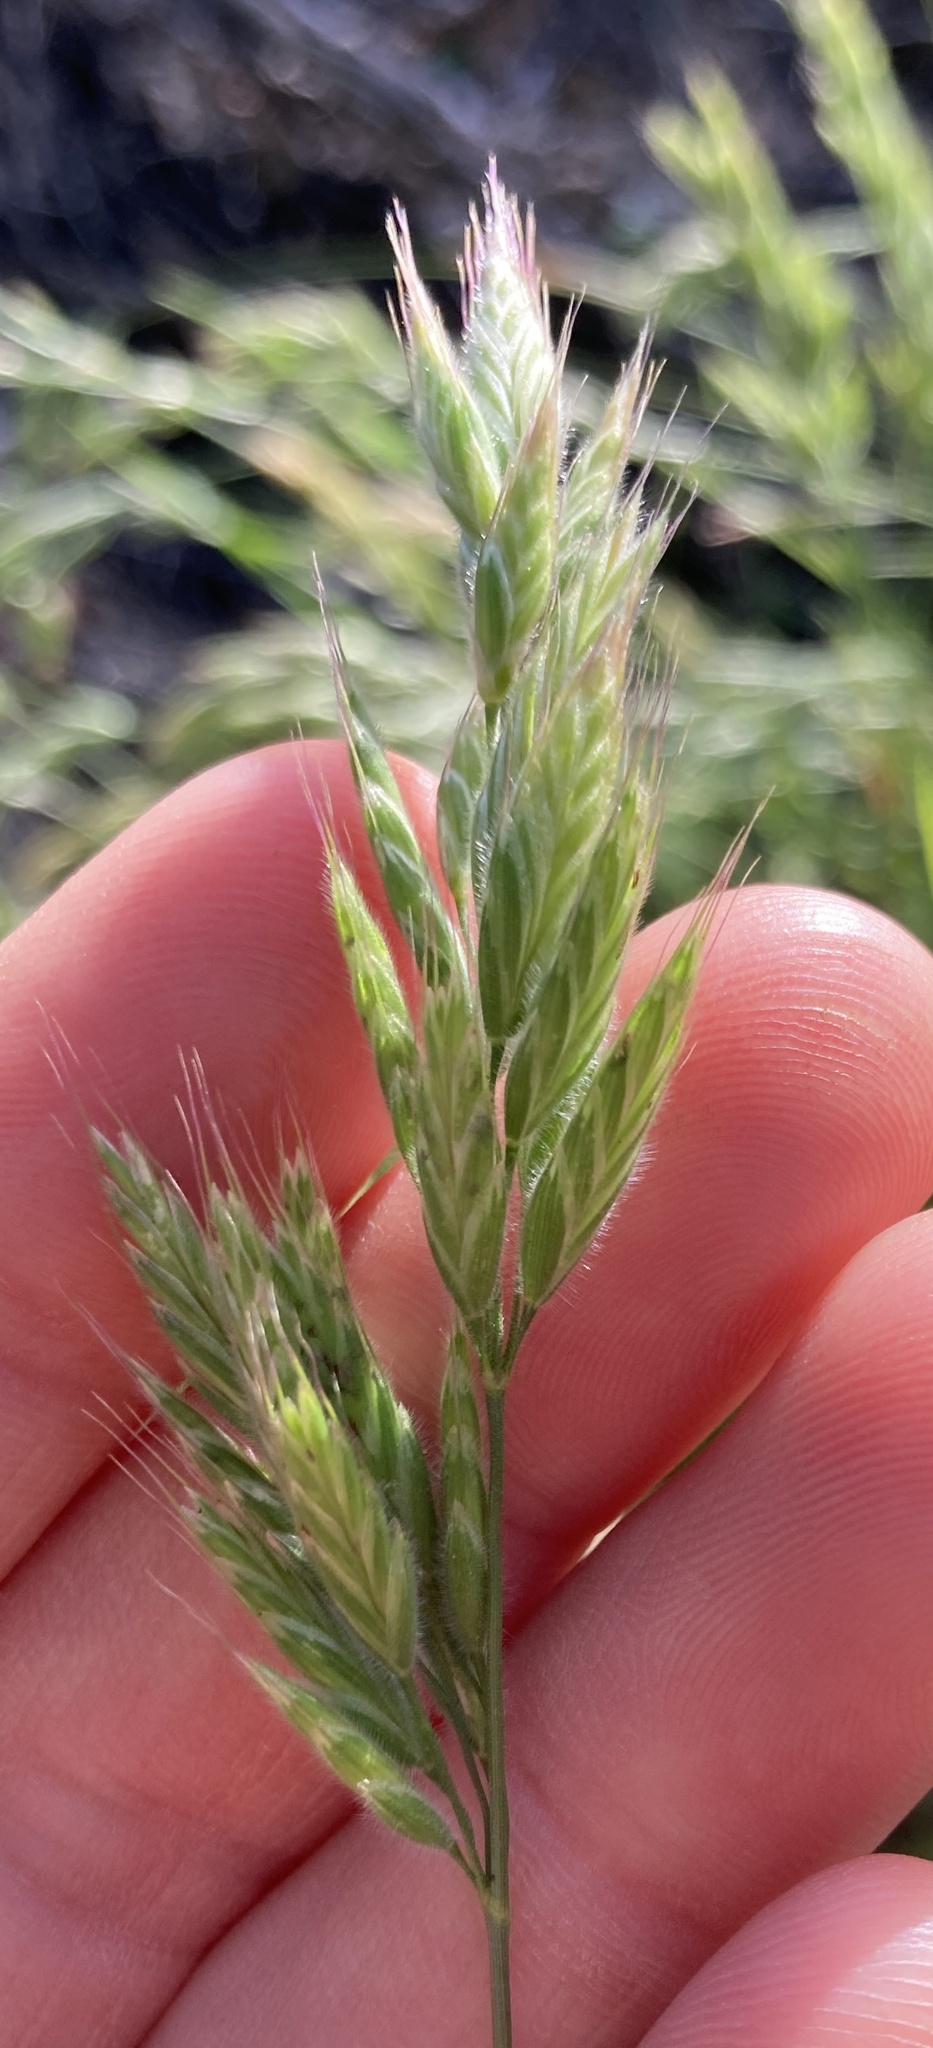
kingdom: Plantae
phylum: Tracheophyta
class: Liliopsida
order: Poales
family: Poaceae
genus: Bromus
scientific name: Bromus hordeaceus
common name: Soft brome
